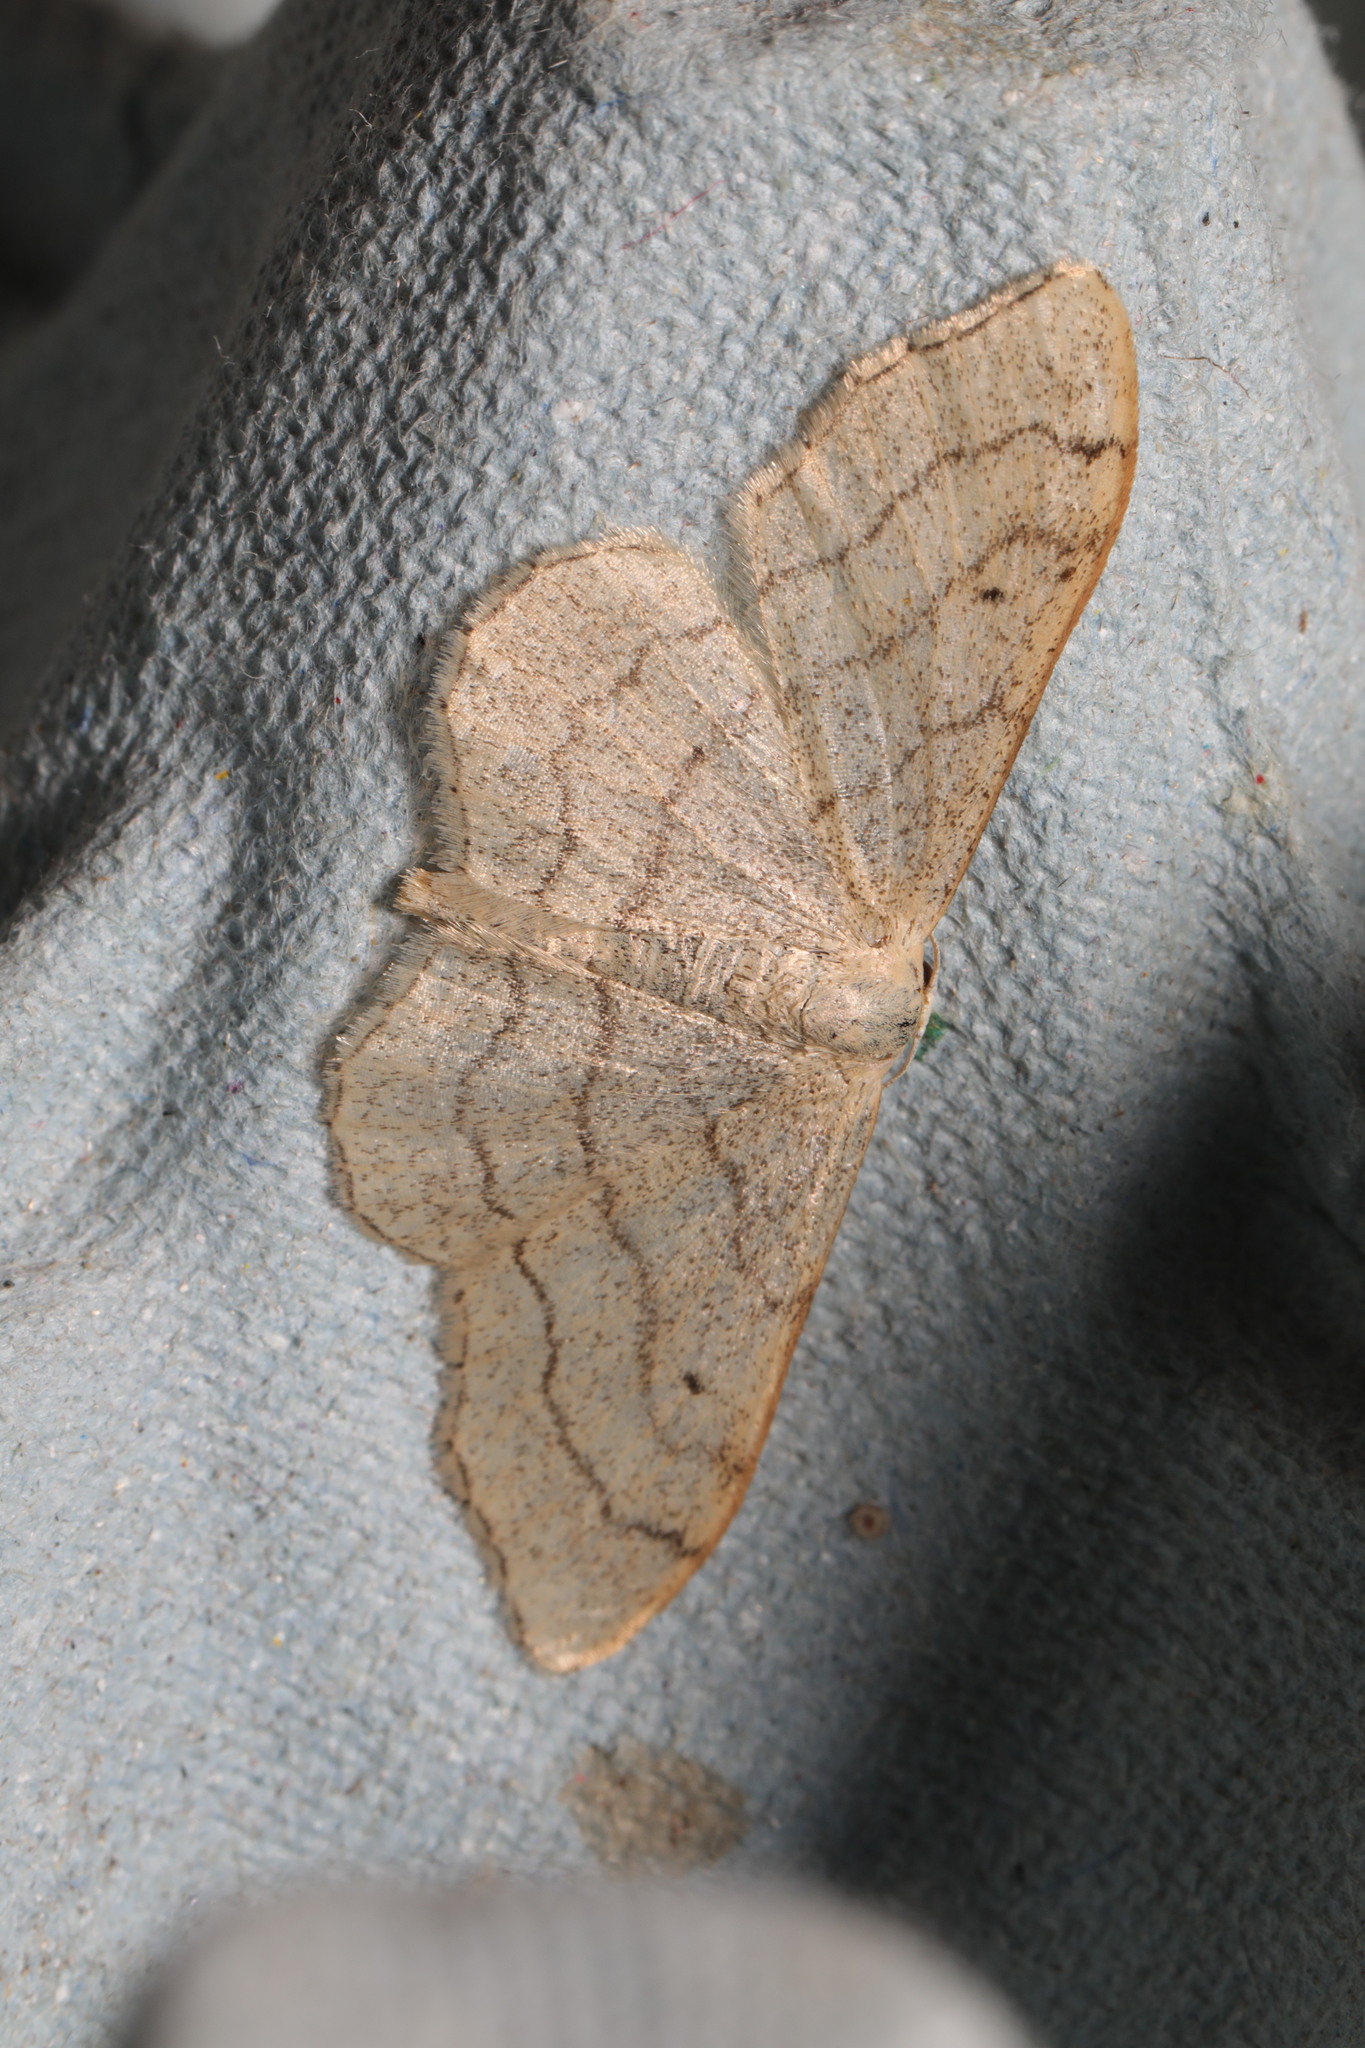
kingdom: Animalia
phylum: Arthropoda
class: Insecta
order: Lepidoptera
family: Geometridae
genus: Idaea
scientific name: Idaea aversata
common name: Riband wave
